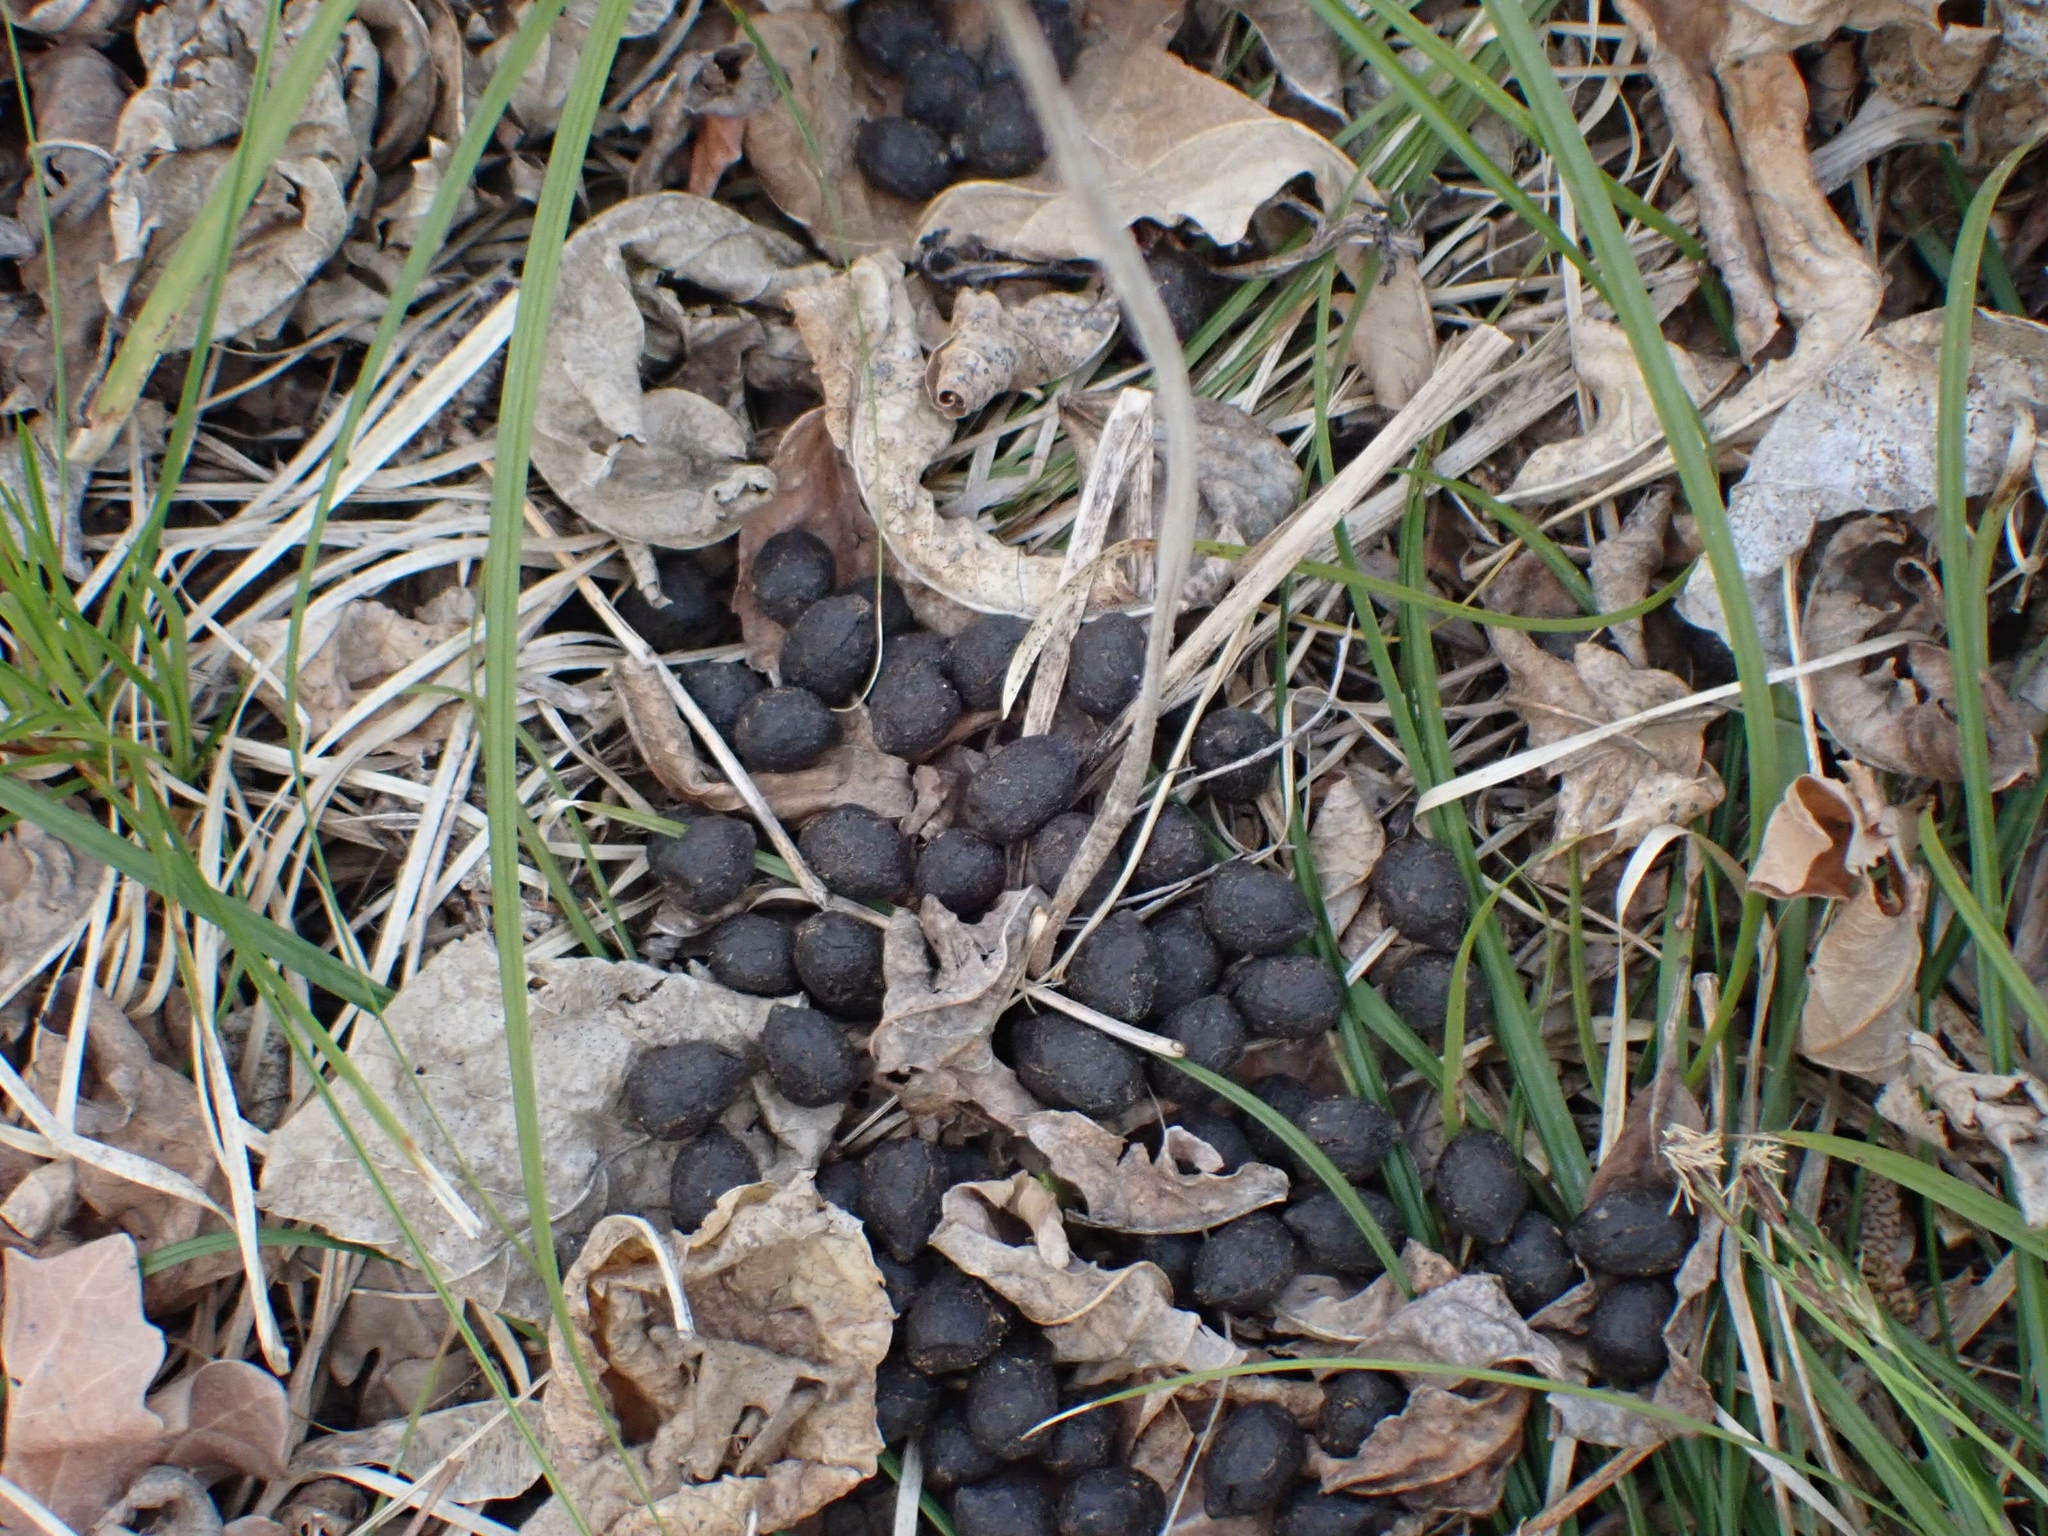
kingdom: Animalia
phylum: Chordata
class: Mammalia
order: Artiodactyla
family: Cervidae
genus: Odocoileus
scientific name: Odocoileus virginianus
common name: White-tailed deer
